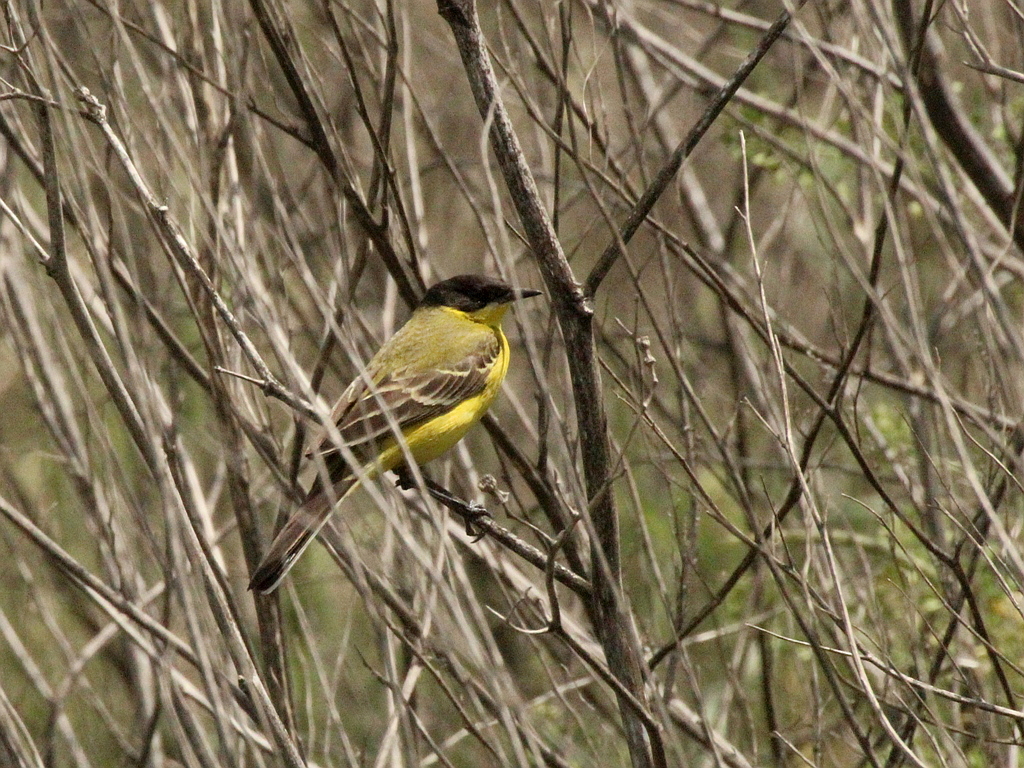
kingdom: Animalia
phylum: Chordata
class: Aves
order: Passeriformes
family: Motacillidae
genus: Motacilla
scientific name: Motacilla flava
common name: Western yellow wagtail
